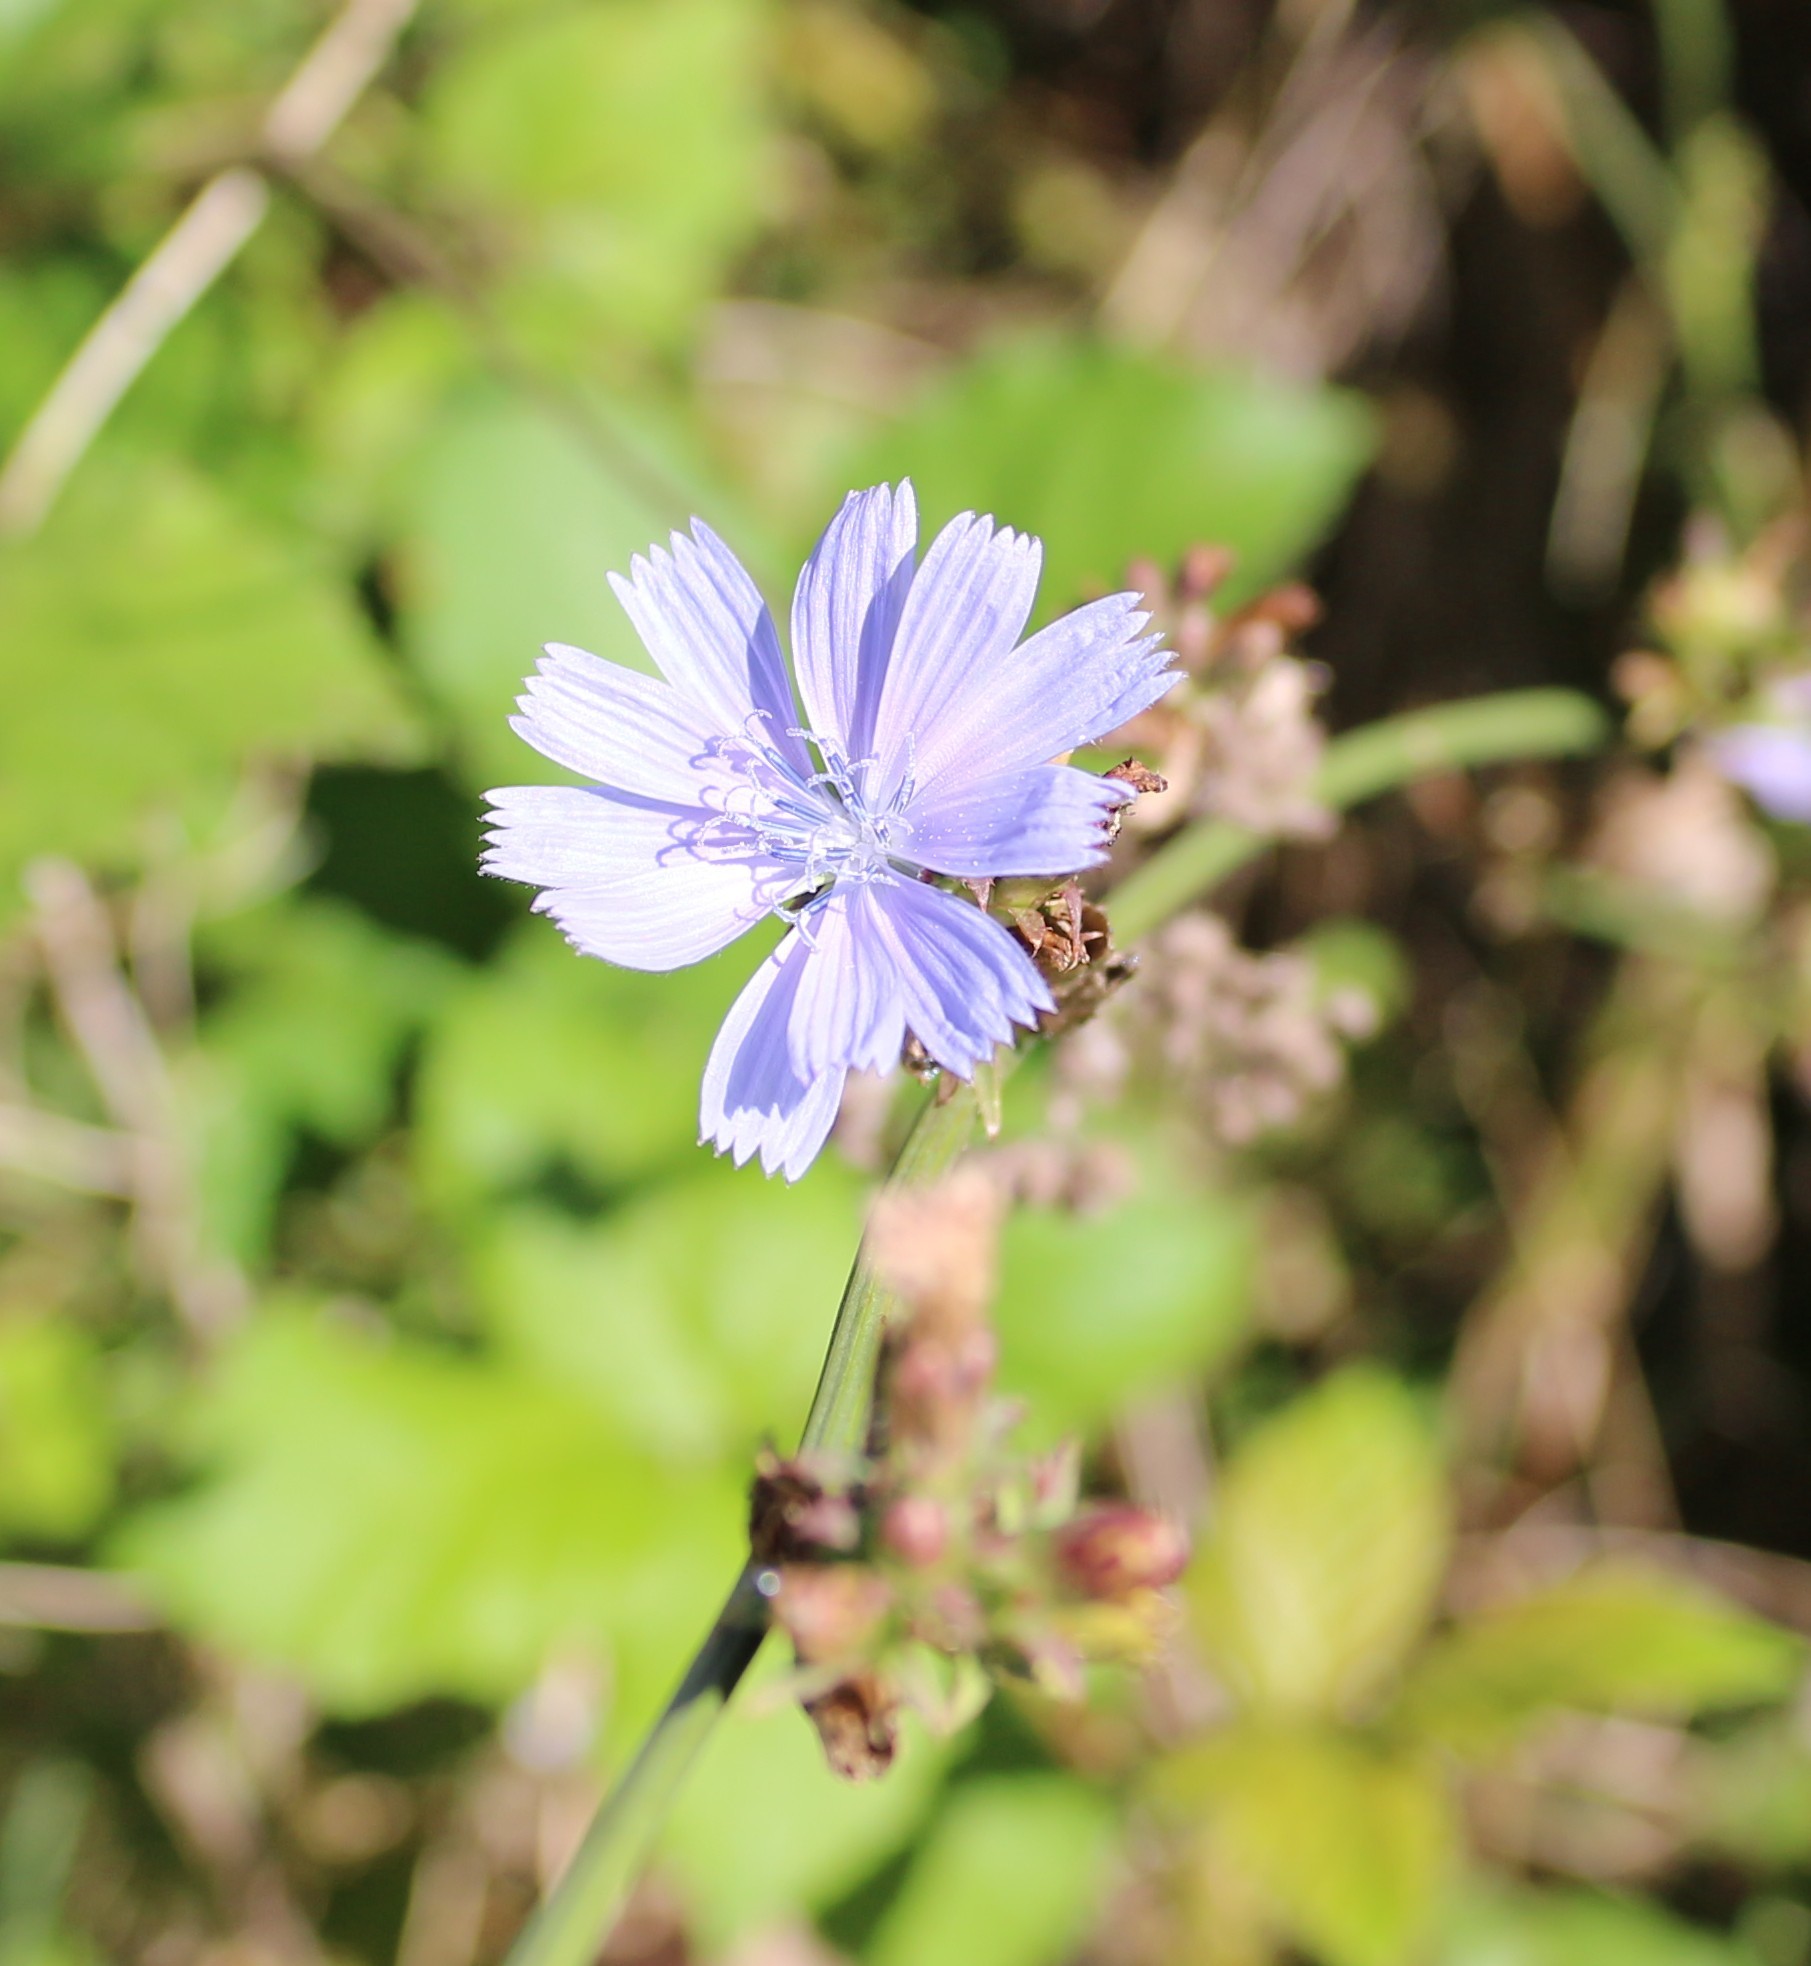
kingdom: Plantae
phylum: Tracheophyta
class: Magnoliopsida
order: Asterales
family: Asteraceae
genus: Cichorium
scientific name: Cichorium intybus
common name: Chicory
